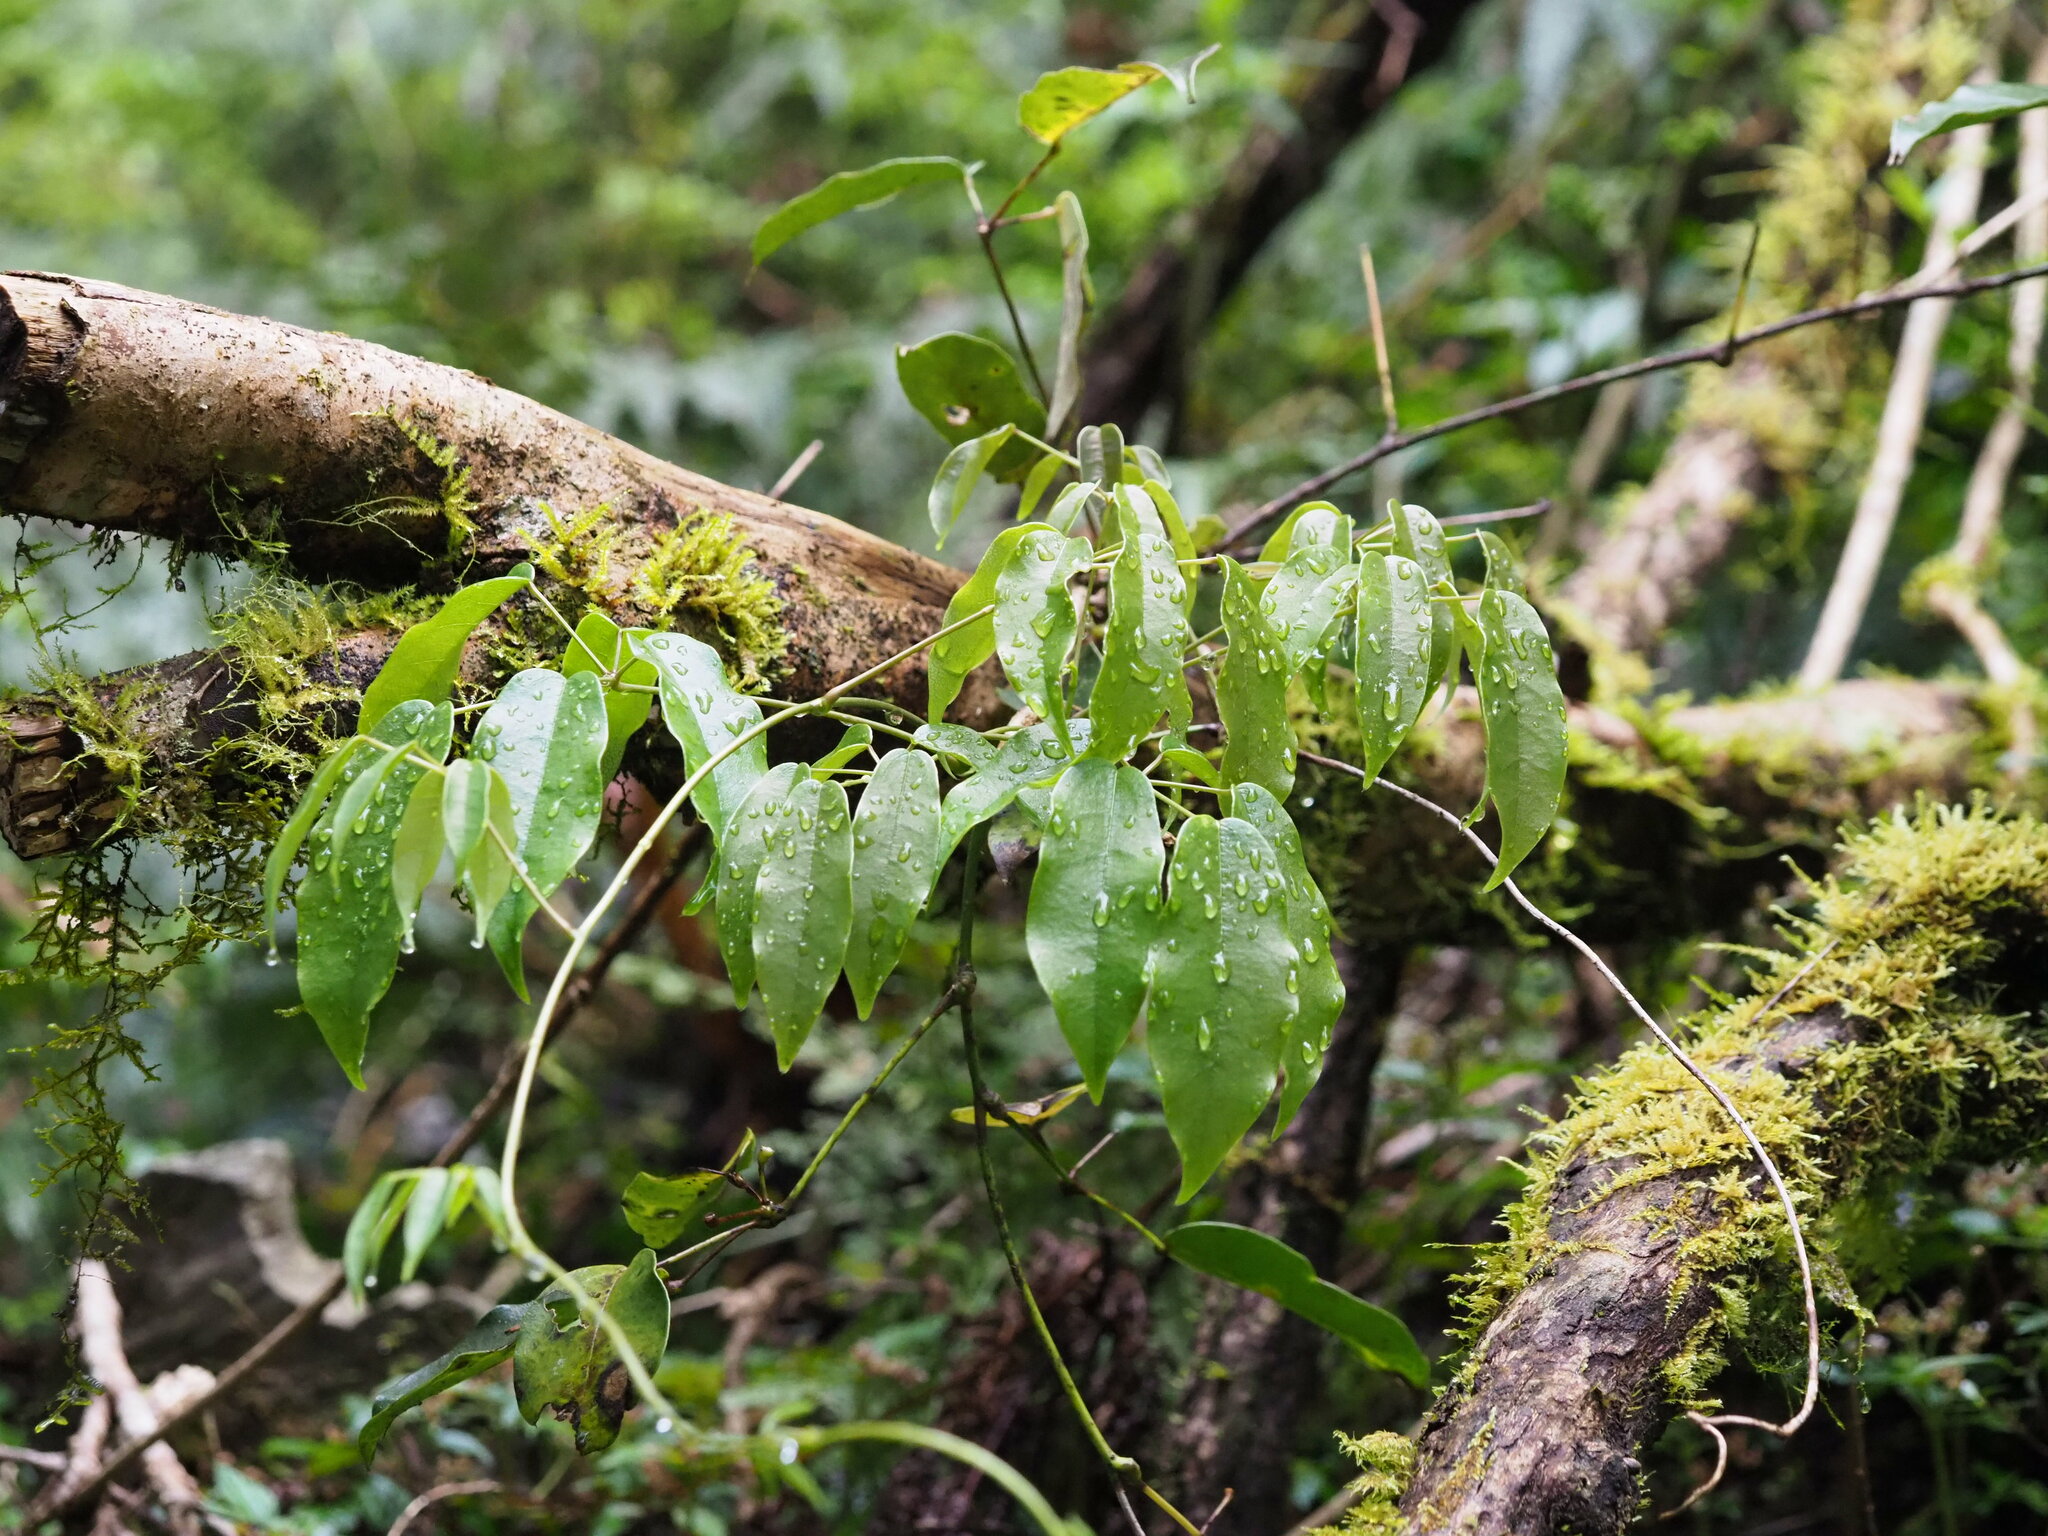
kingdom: Plantae
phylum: Tracheophyta
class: Magnoliopsida
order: Ranunculales
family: Lardizabalaceae
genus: Stauntonia
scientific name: Stauntonia obovatifoliola
